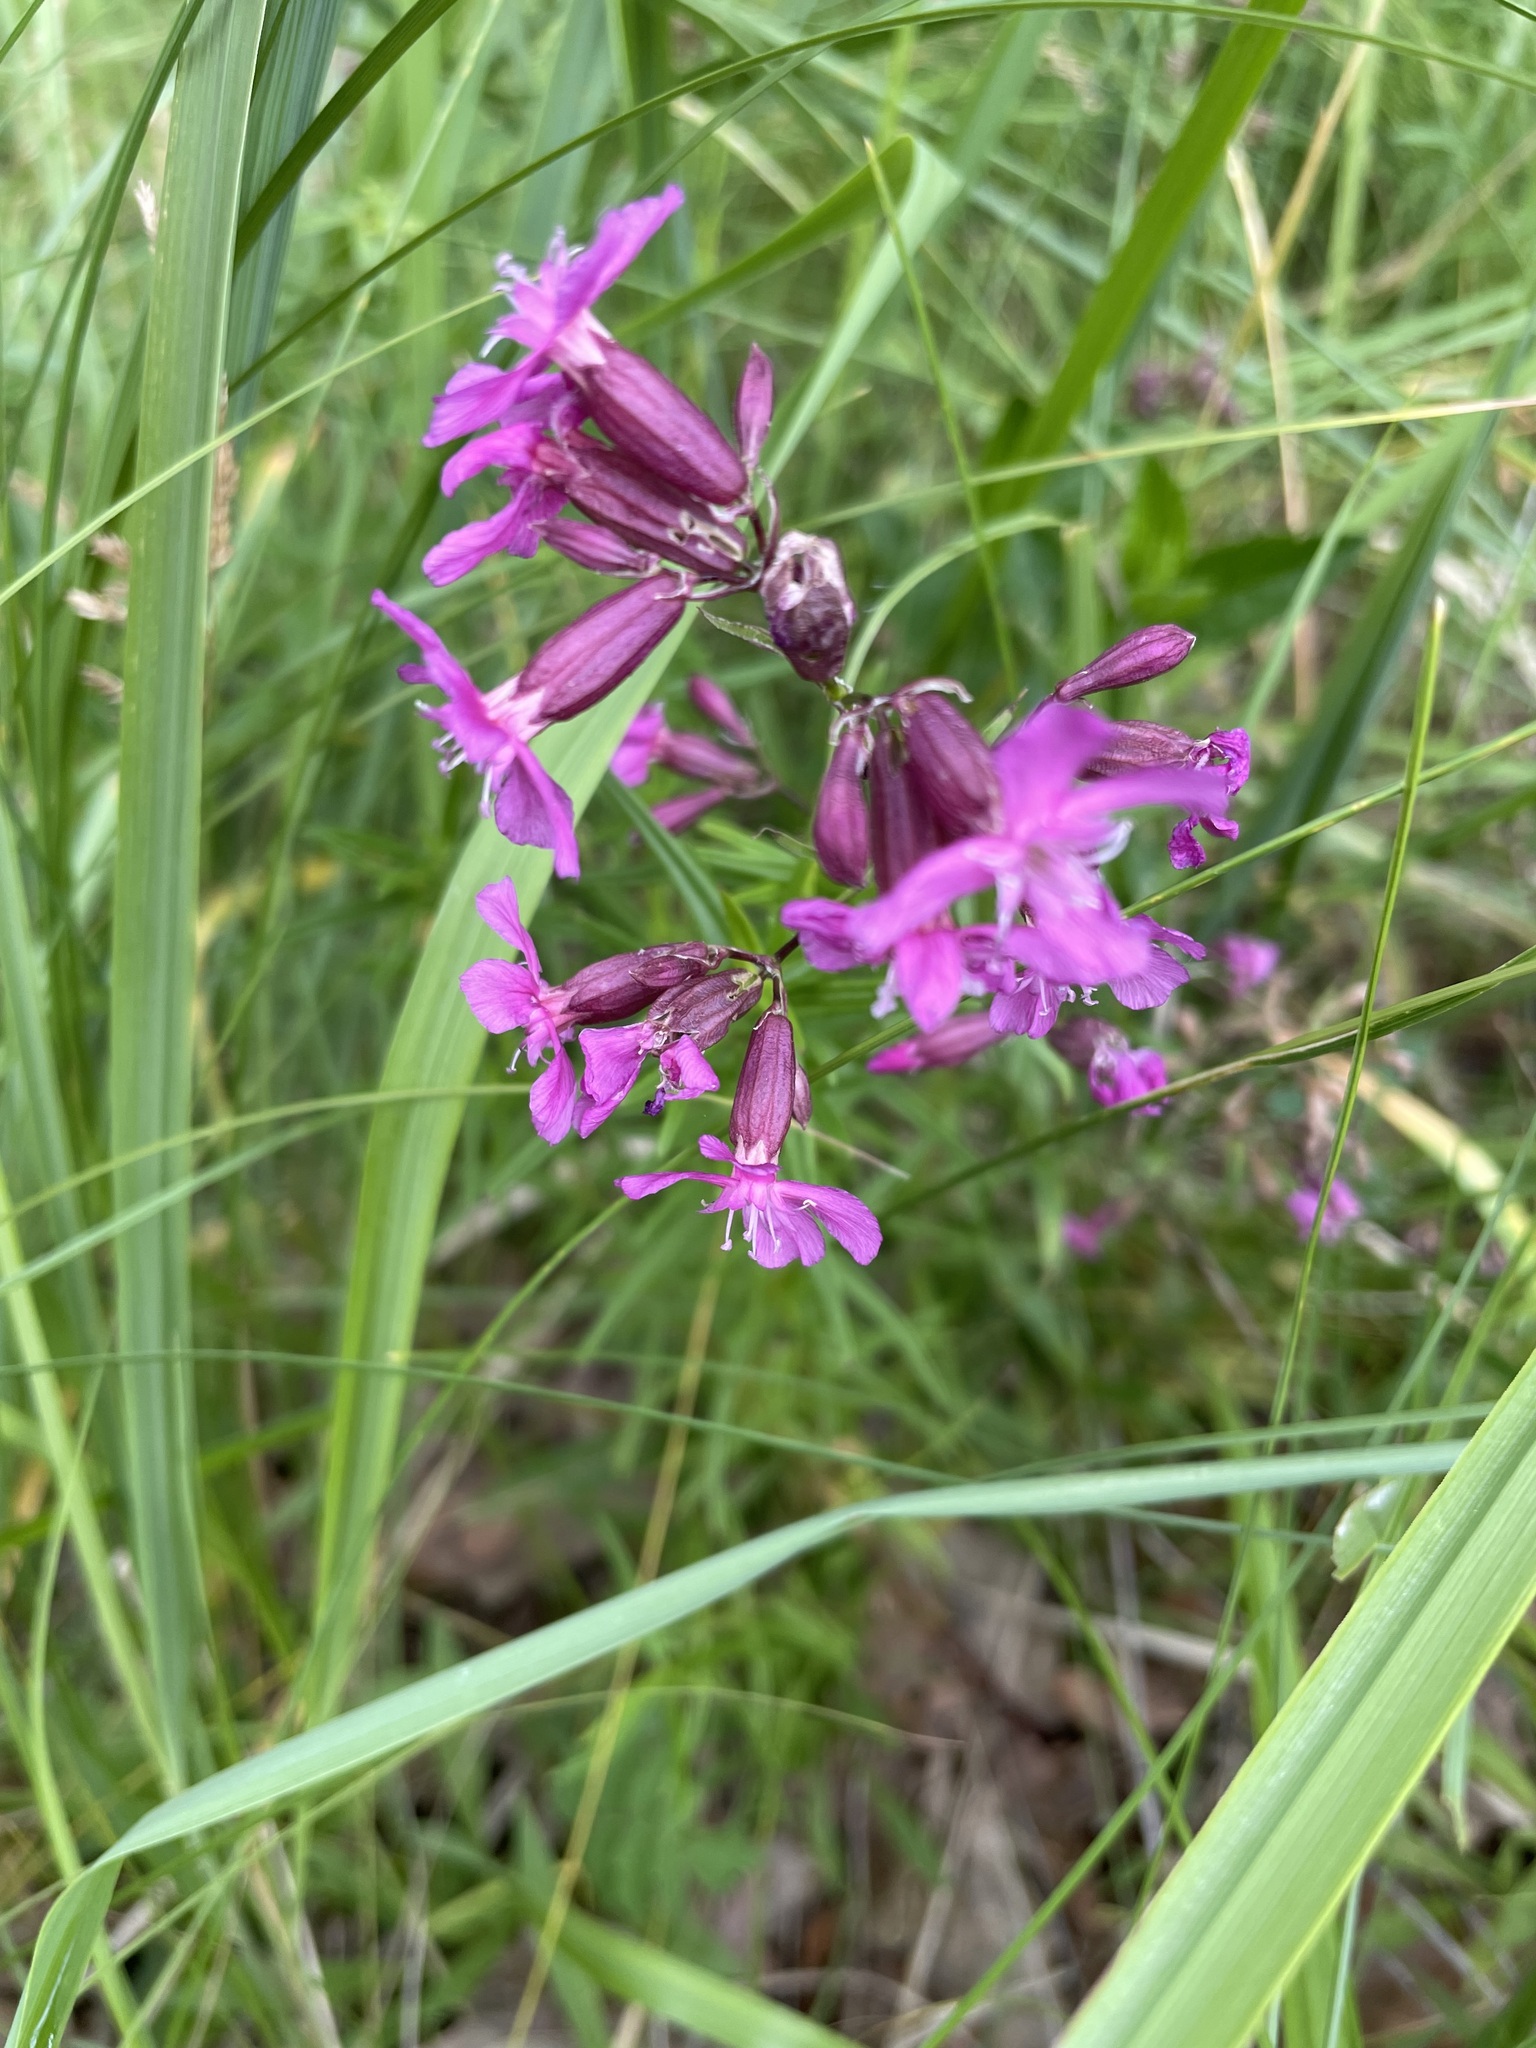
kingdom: Plantae
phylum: Tracheophyta
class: Magnoliopsida
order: Caryophyllales
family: Caryophyllaceae
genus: Viscaria
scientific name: Viscaria vulgaris
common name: Clammy campion
